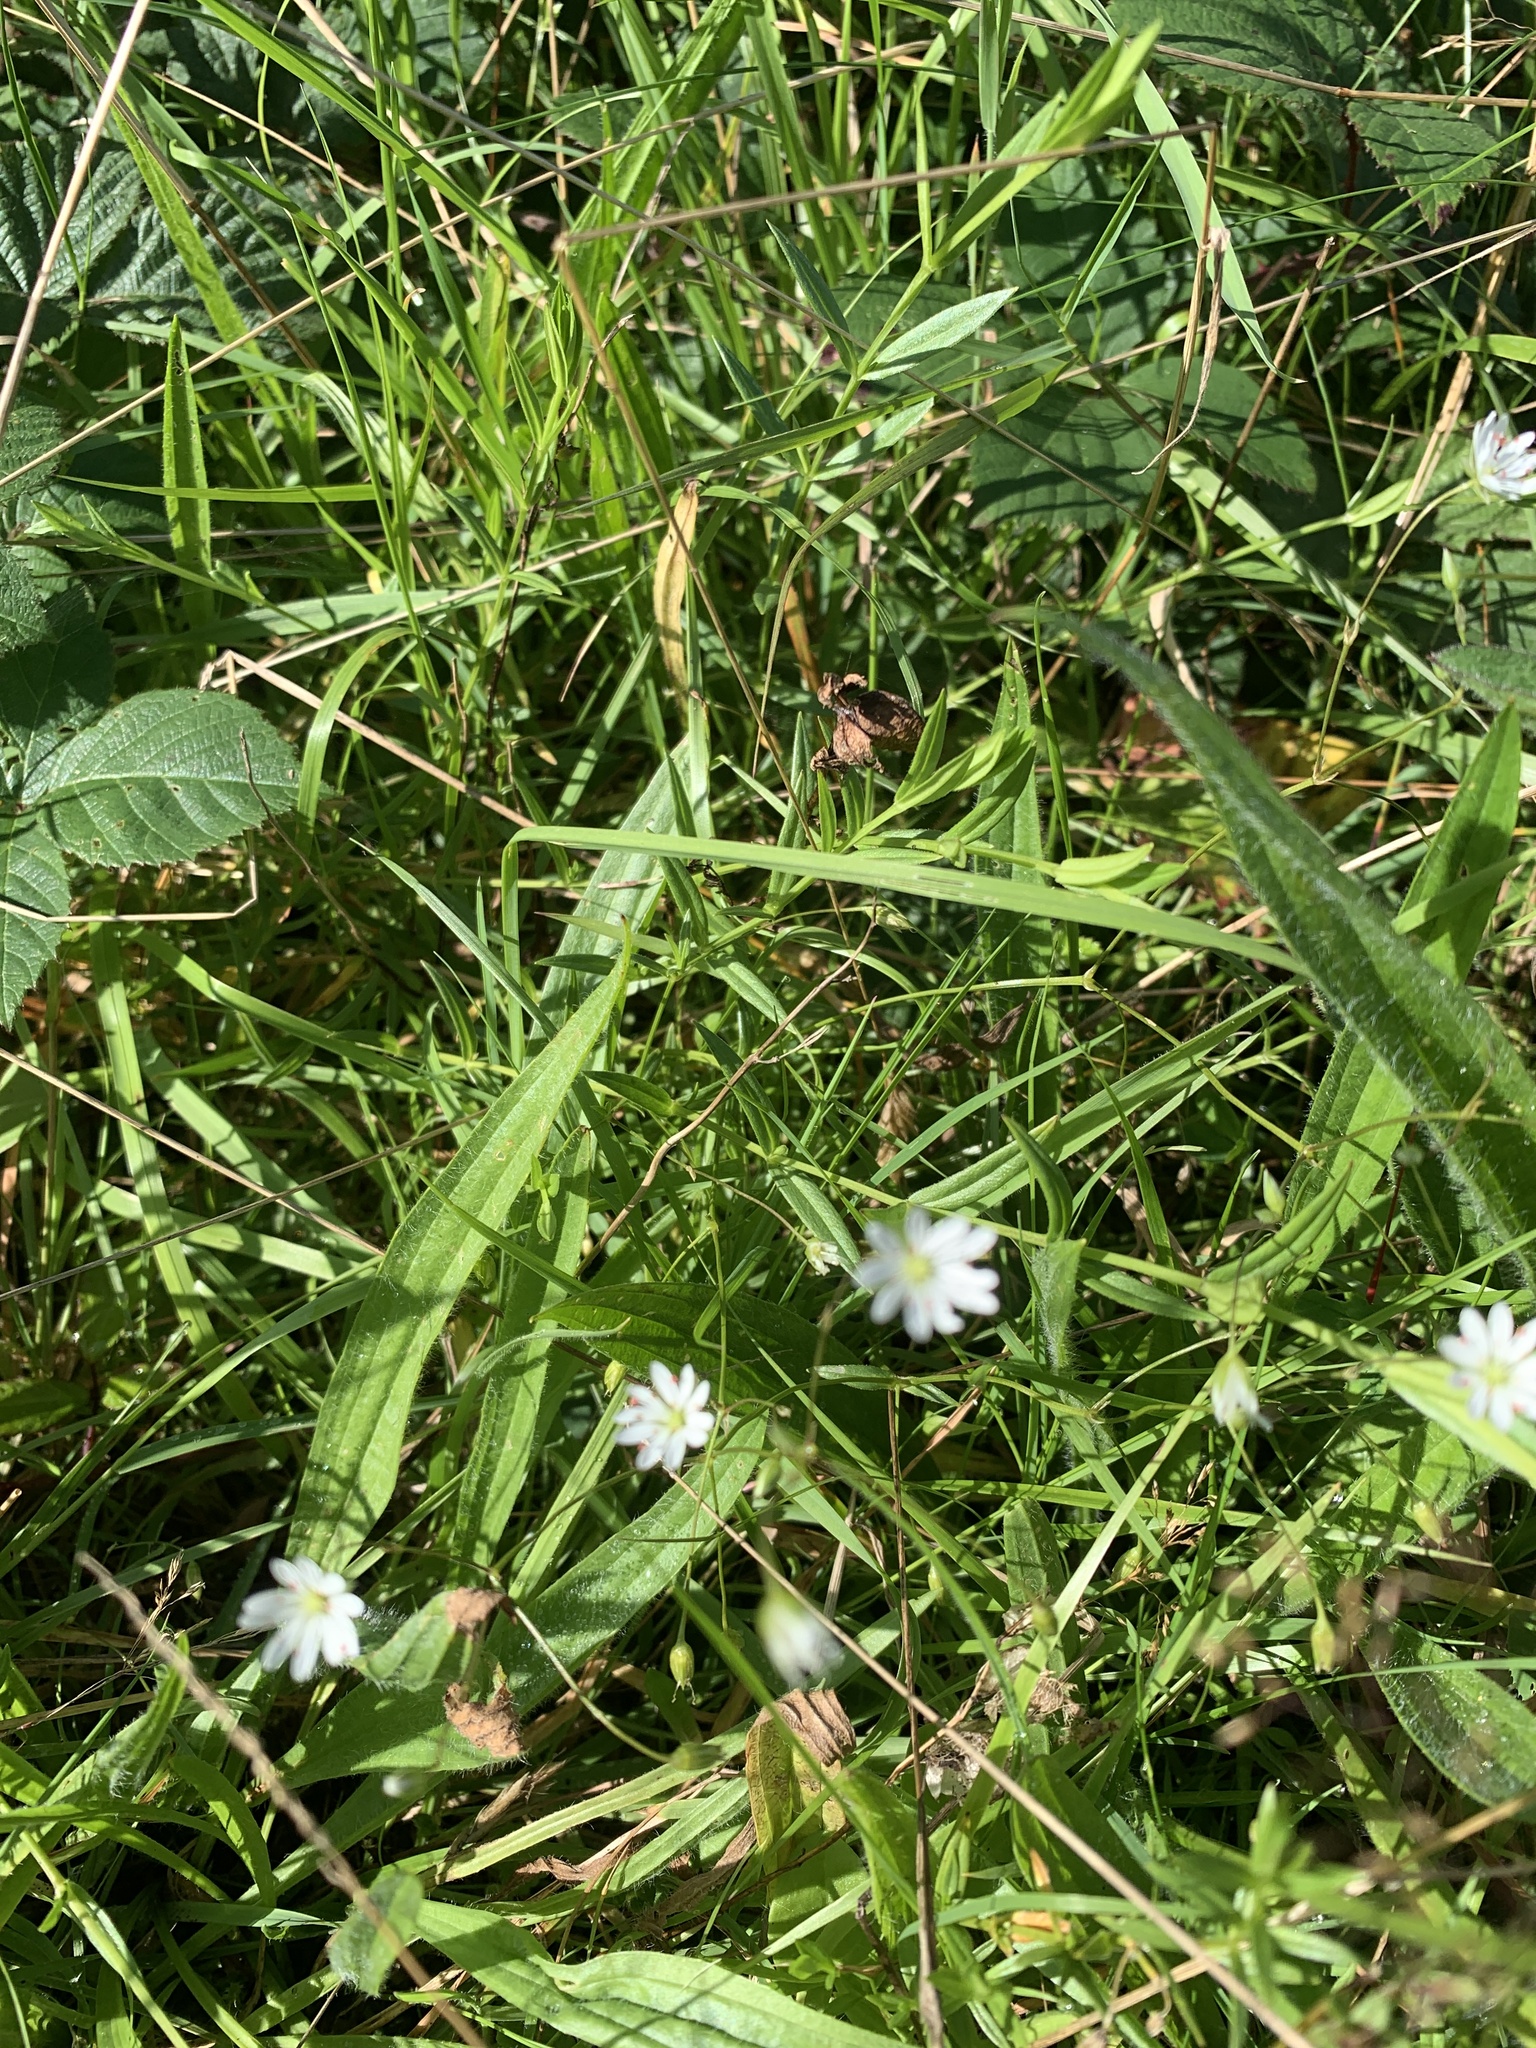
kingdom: Plantae
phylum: Tracheophyta
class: Magnoliopsida
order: Caryophyllales
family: Caryophyllaceae
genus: Stellaria
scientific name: Stellaria graminea
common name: Grass-like starwort
